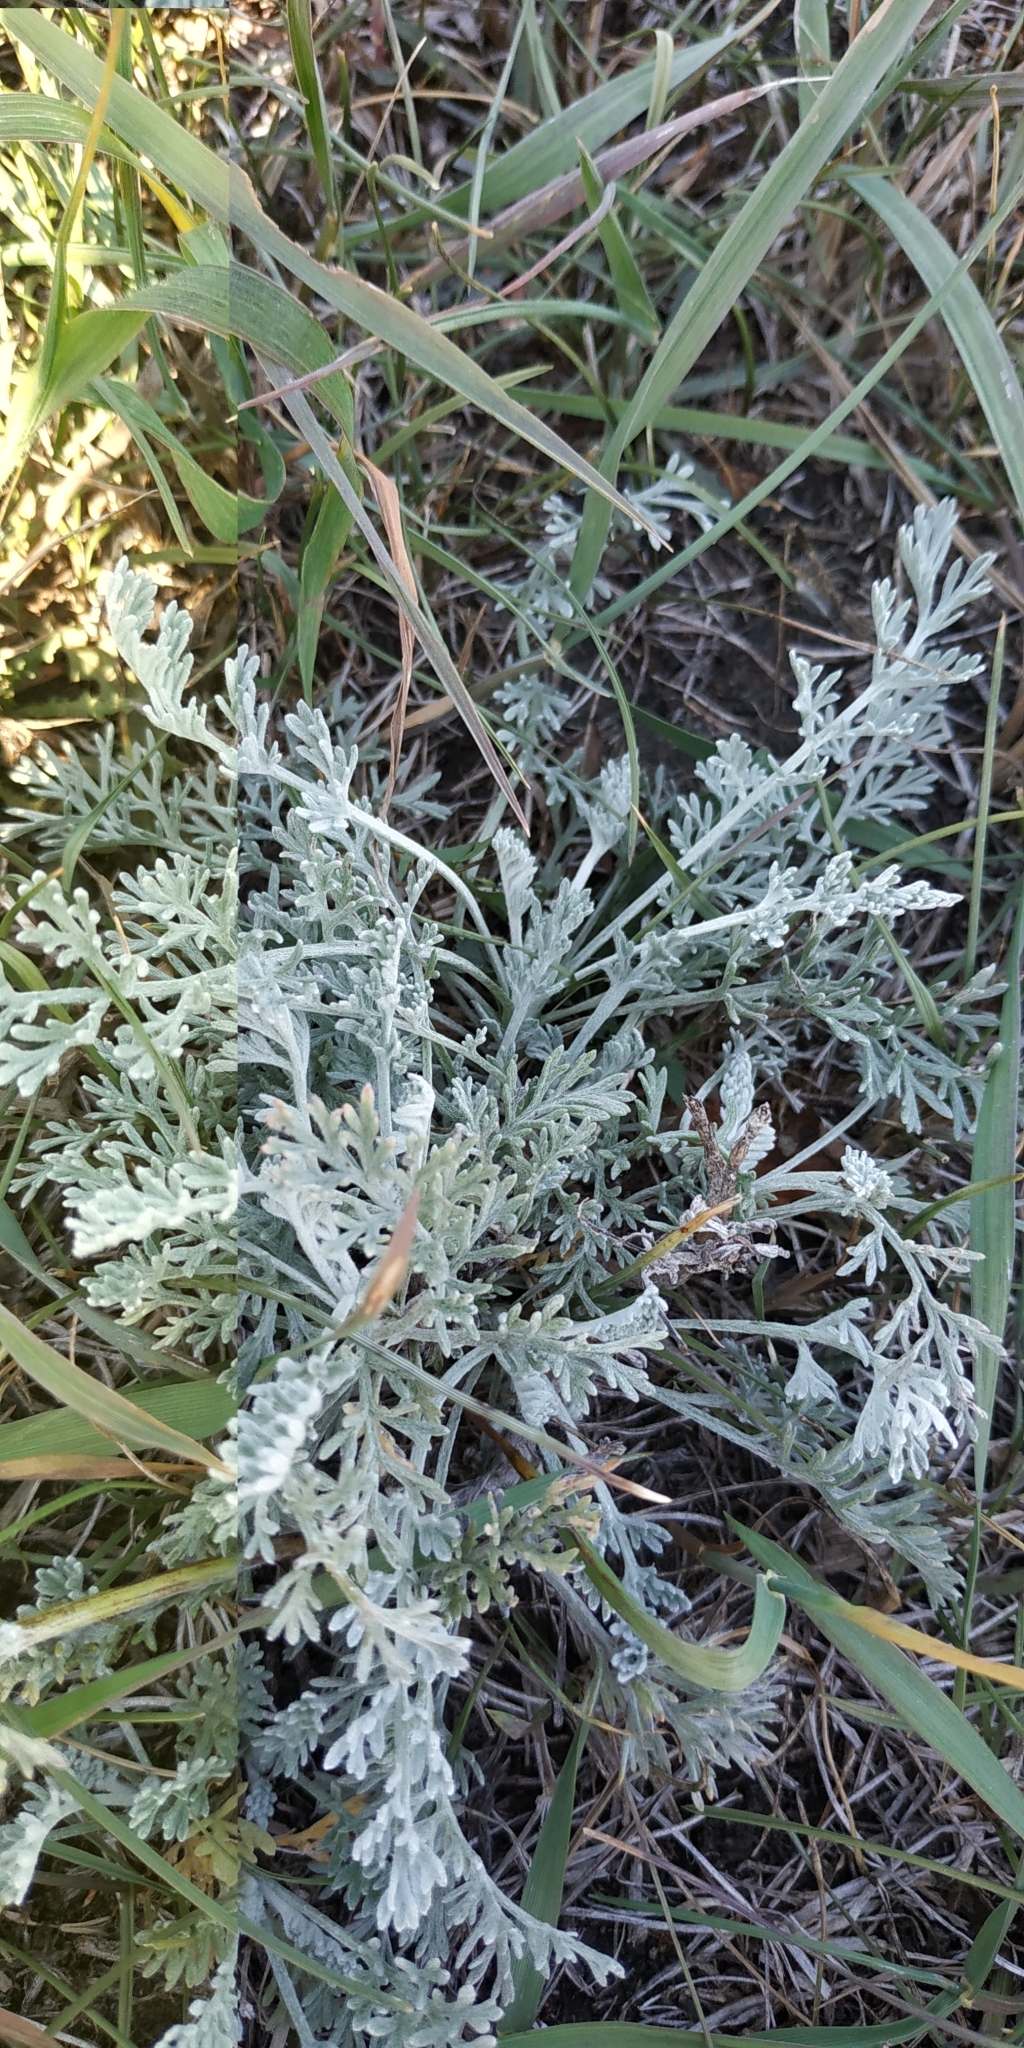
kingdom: Plantae
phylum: Tracheophyta
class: Magnoliopsida
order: Asterales
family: Asteraceae
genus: Artemisia
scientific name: Artemisia nitrosa
